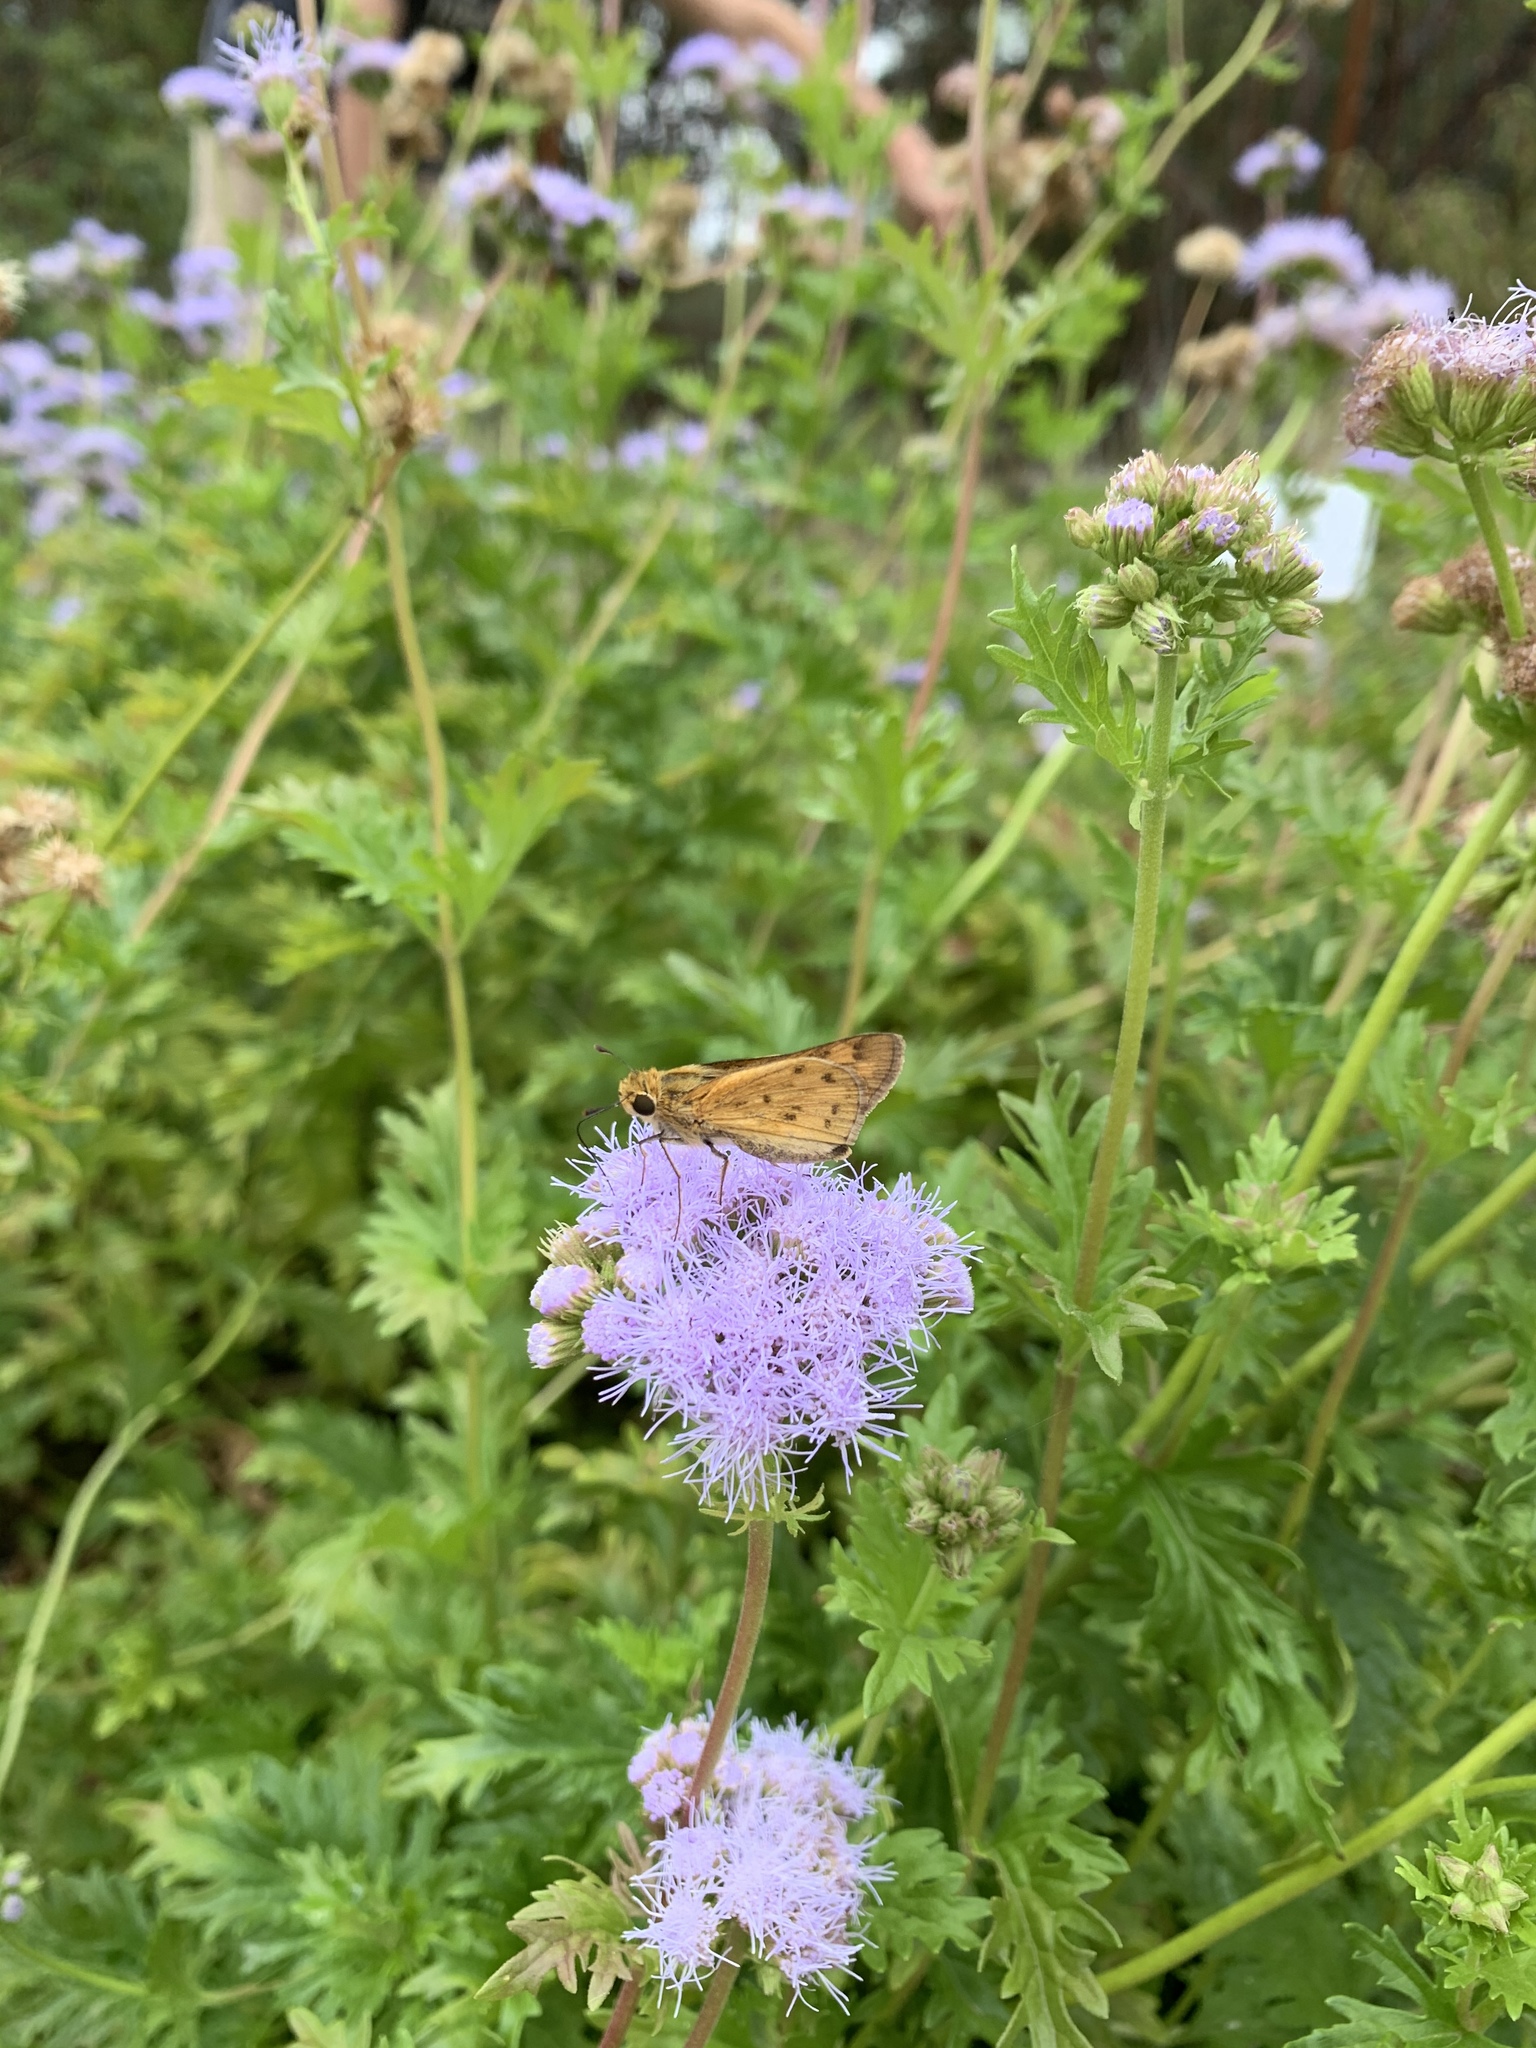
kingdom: Animalia
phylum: Arthropoda
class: Insecta
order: Lepidoptera
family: Hesperiidae
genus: Hylephila
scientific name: Hylephila phyleus
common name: Fiery skipper
